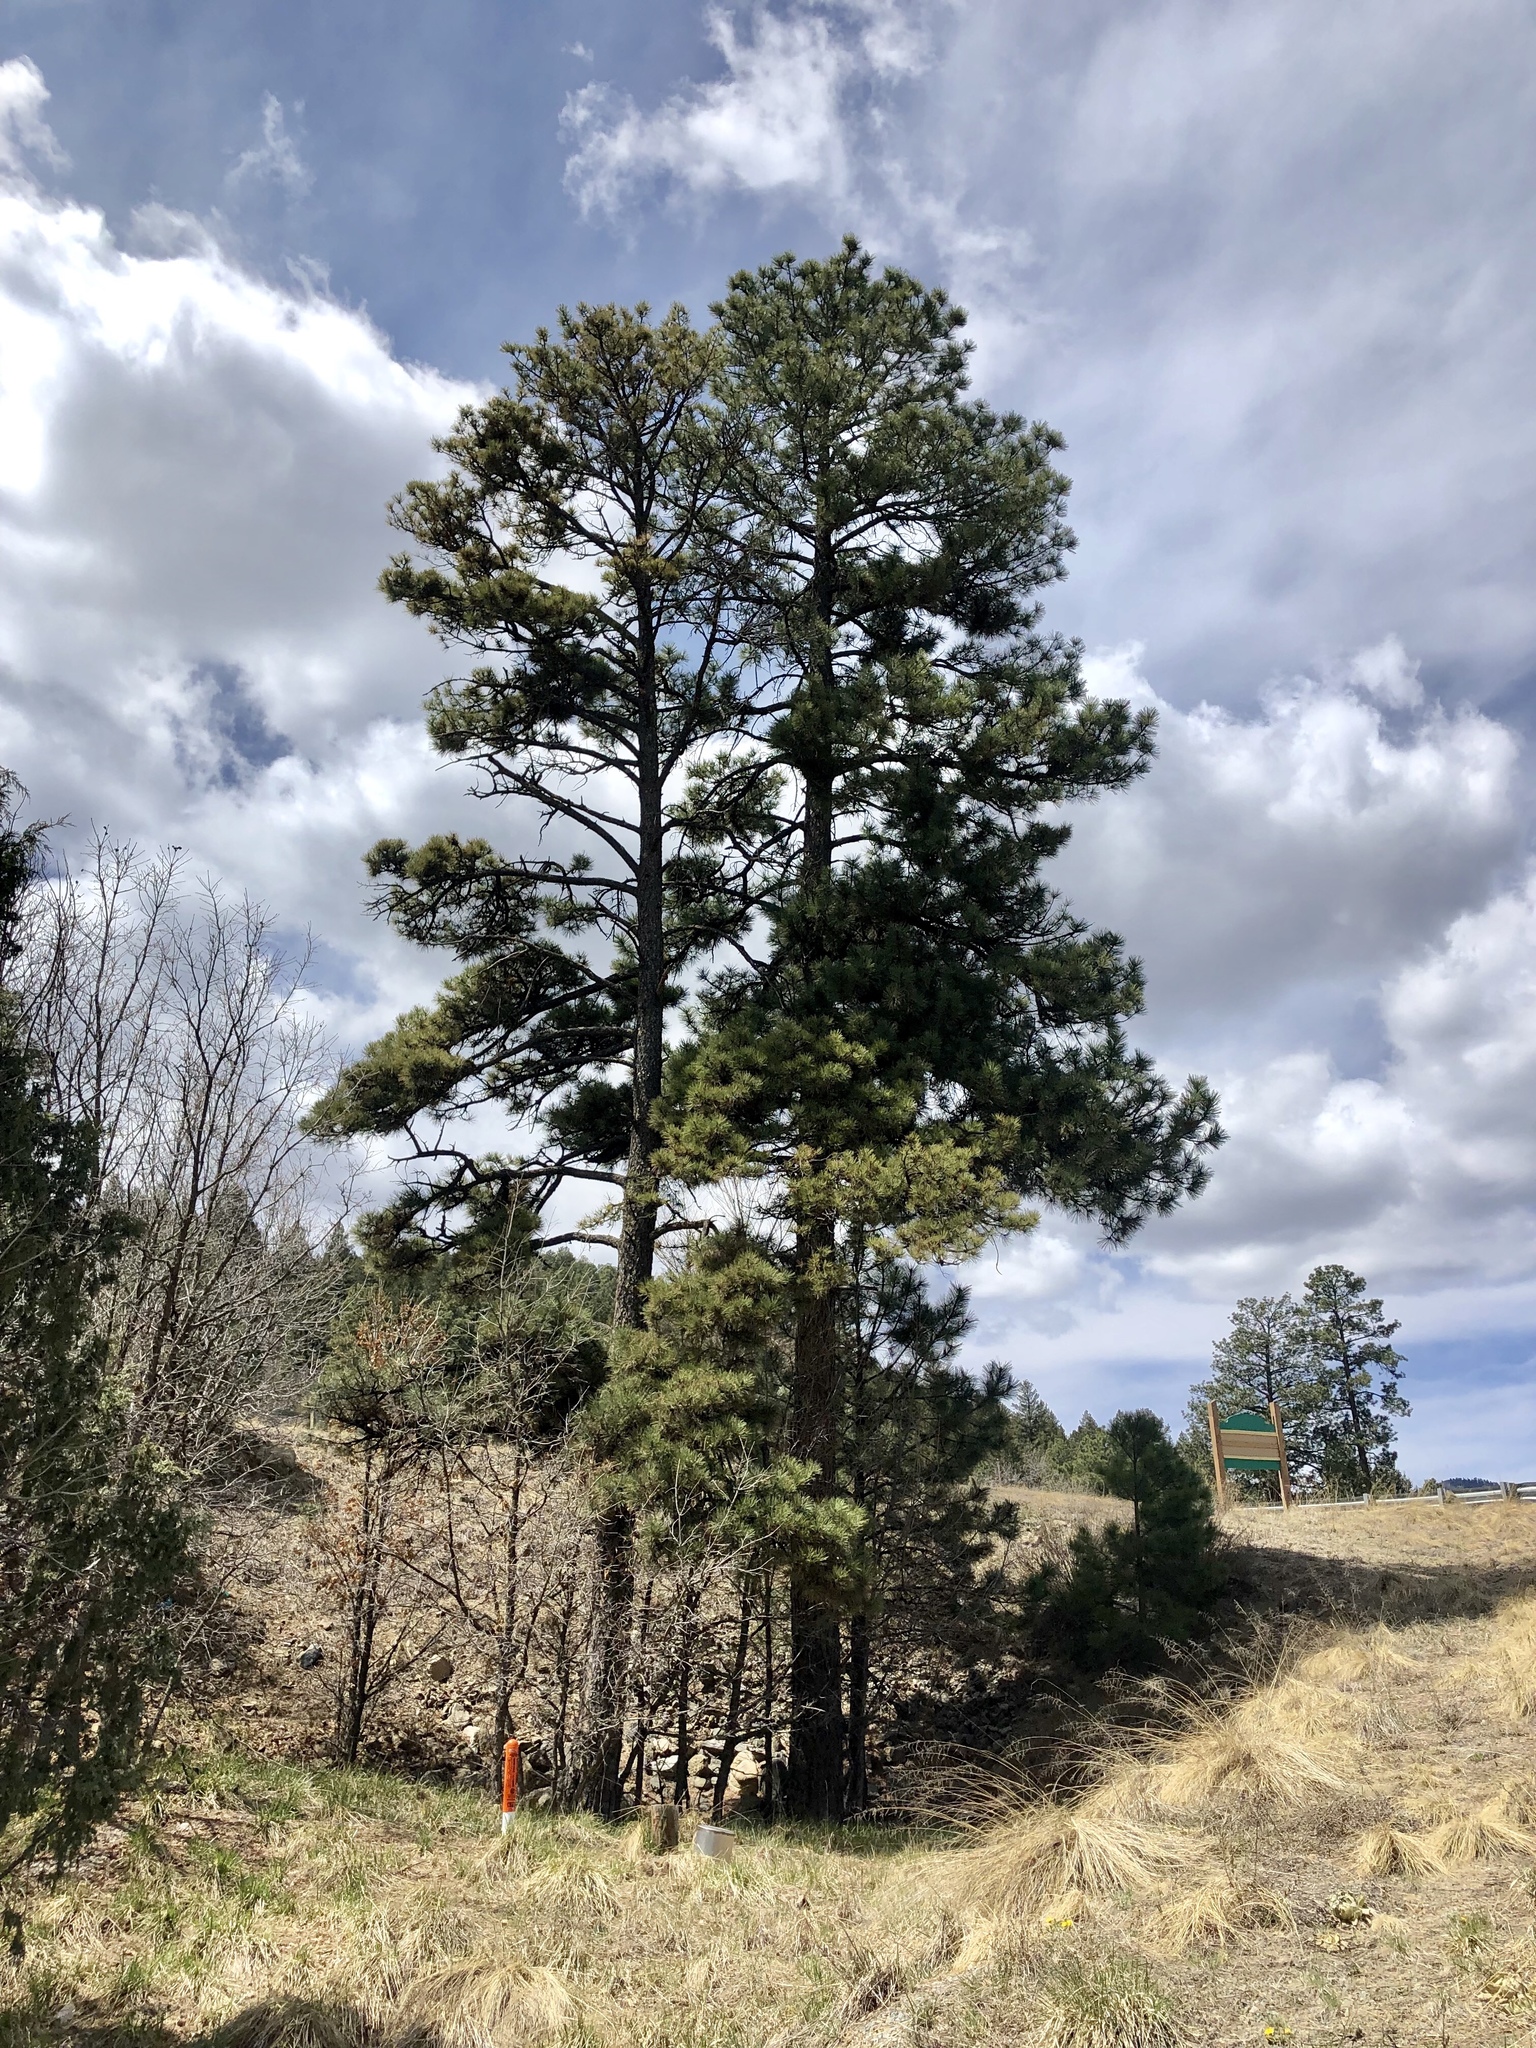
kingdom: Plantae
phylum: Tracheophyta
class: Pinopsida
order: Pinales
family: Pinaceae
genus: Pinus
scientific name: Pinus ponderosa
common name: Western yellow-pine
